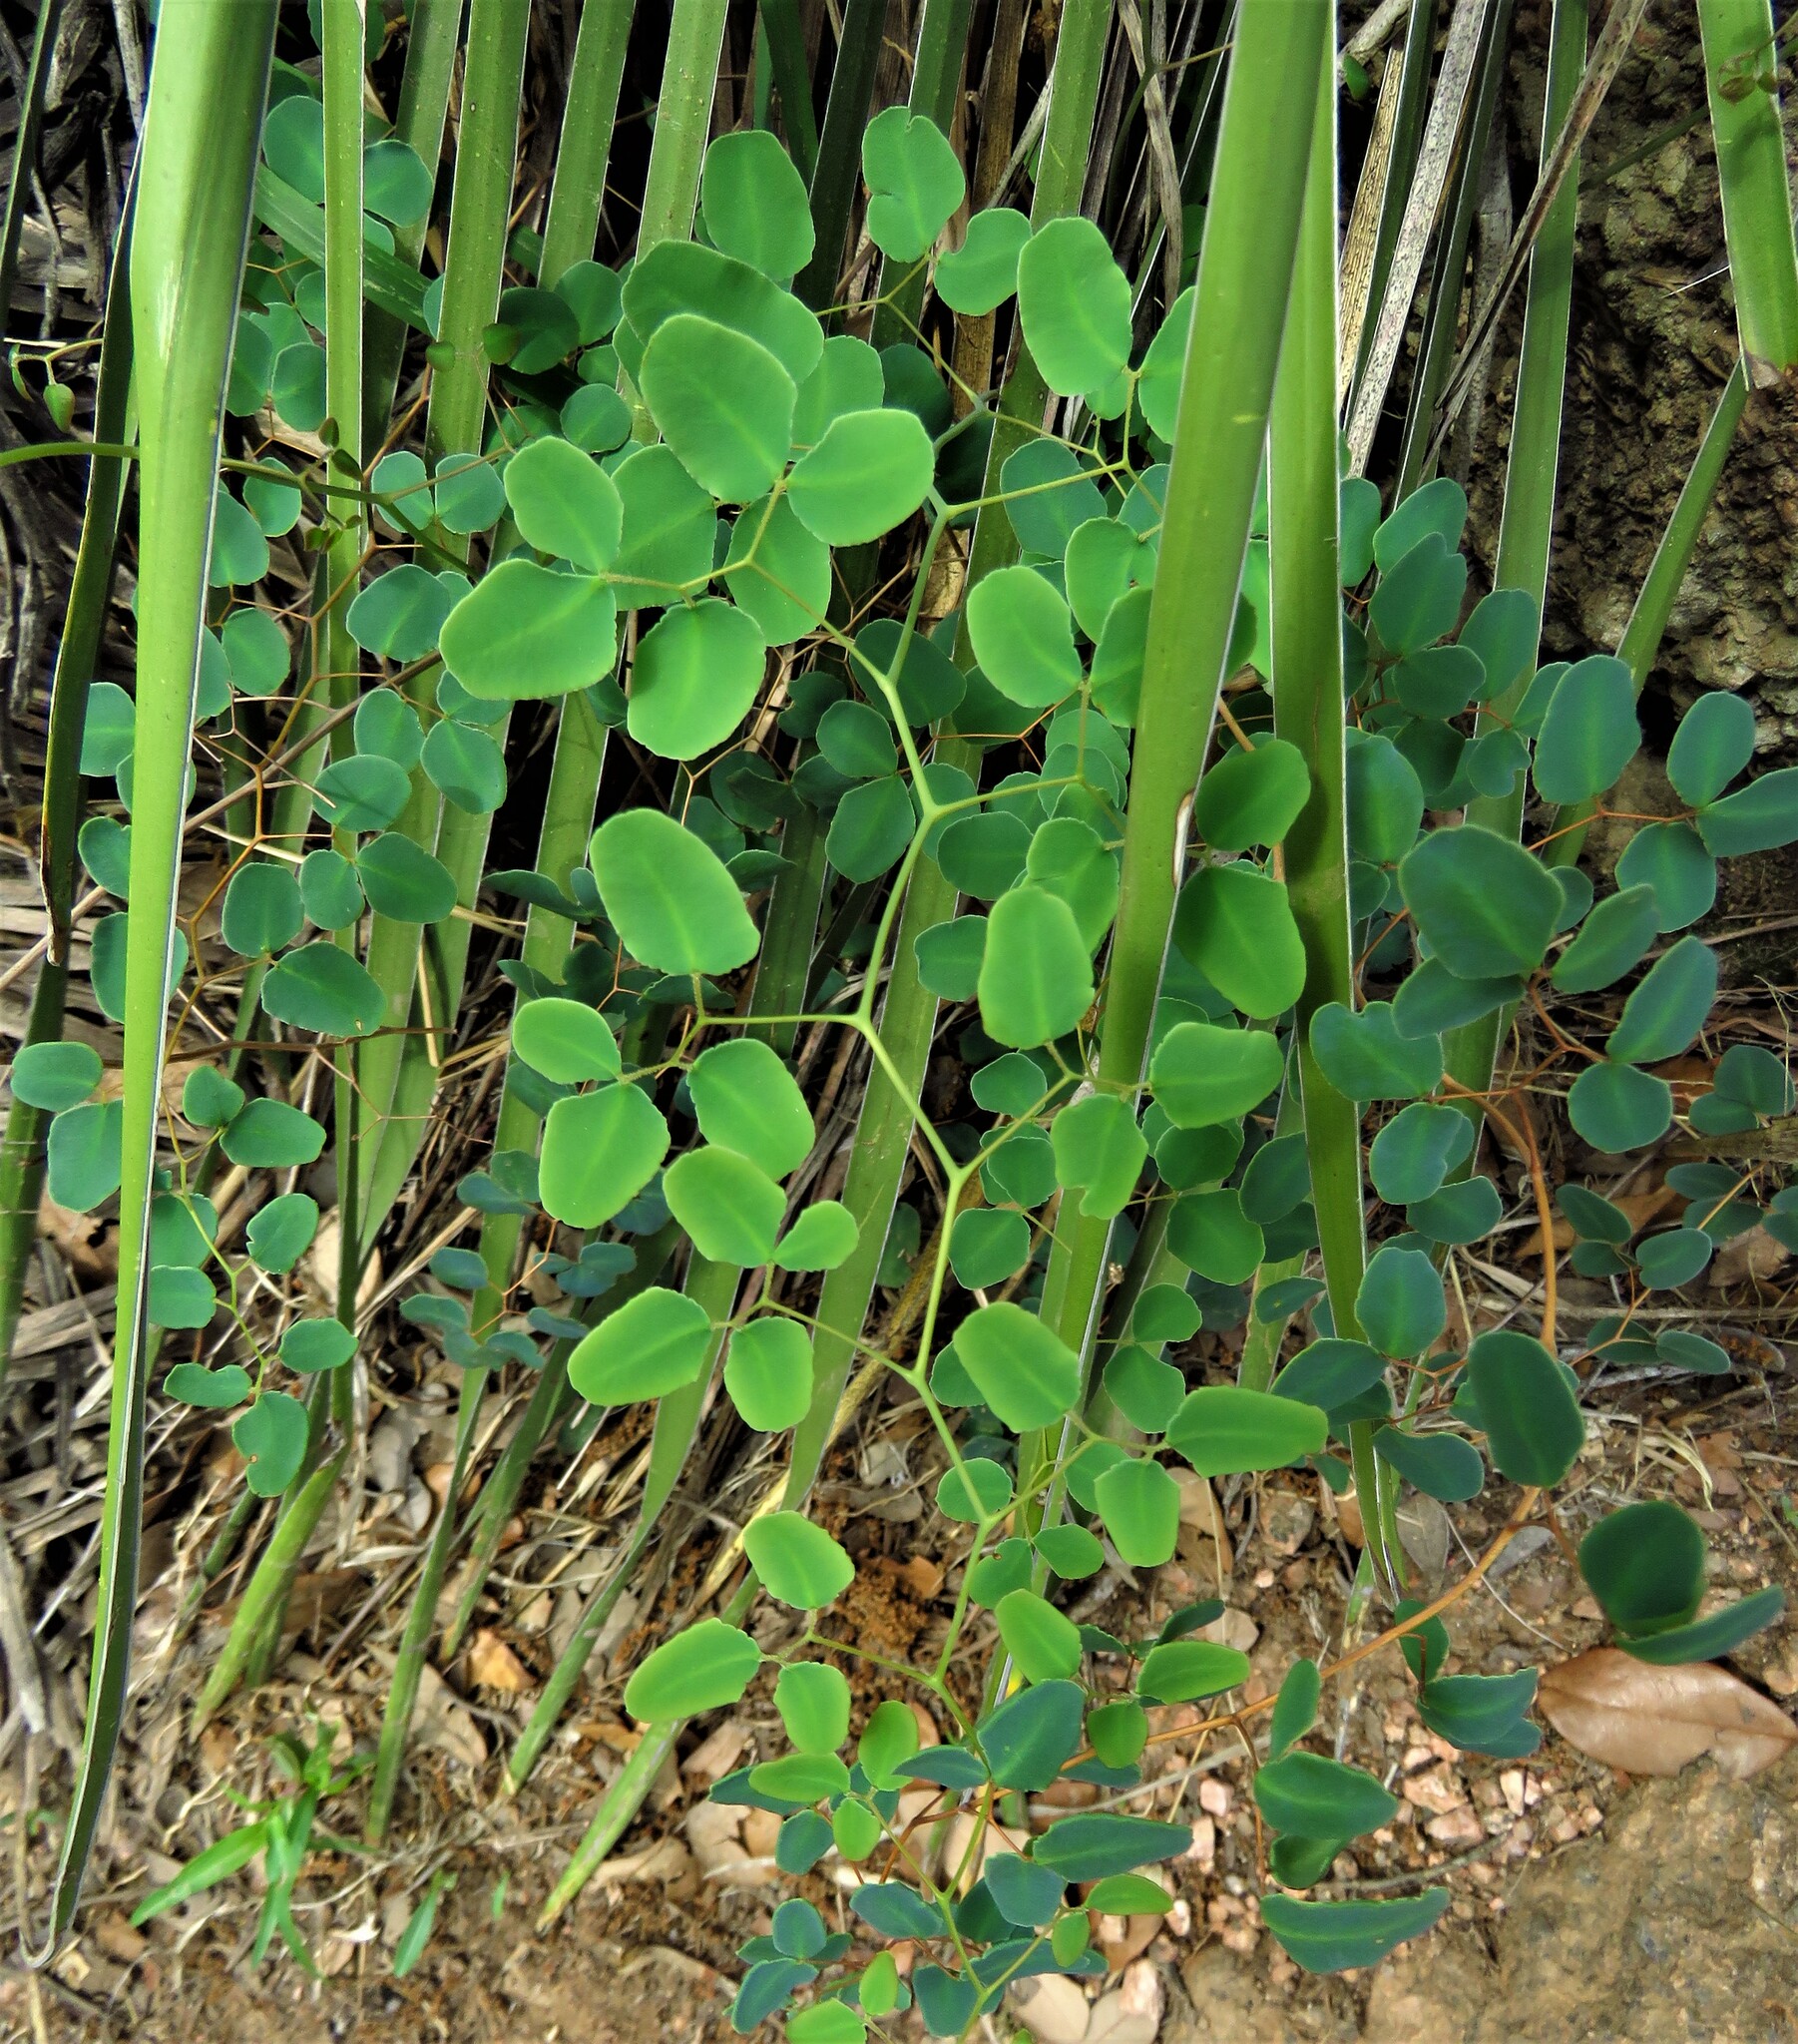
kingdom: Plantae
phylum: Tracheophyta
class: Polypodiopsida
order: Polypodiales
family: Pteridaceae
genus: Pellaea
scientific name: Pellaea ovata
